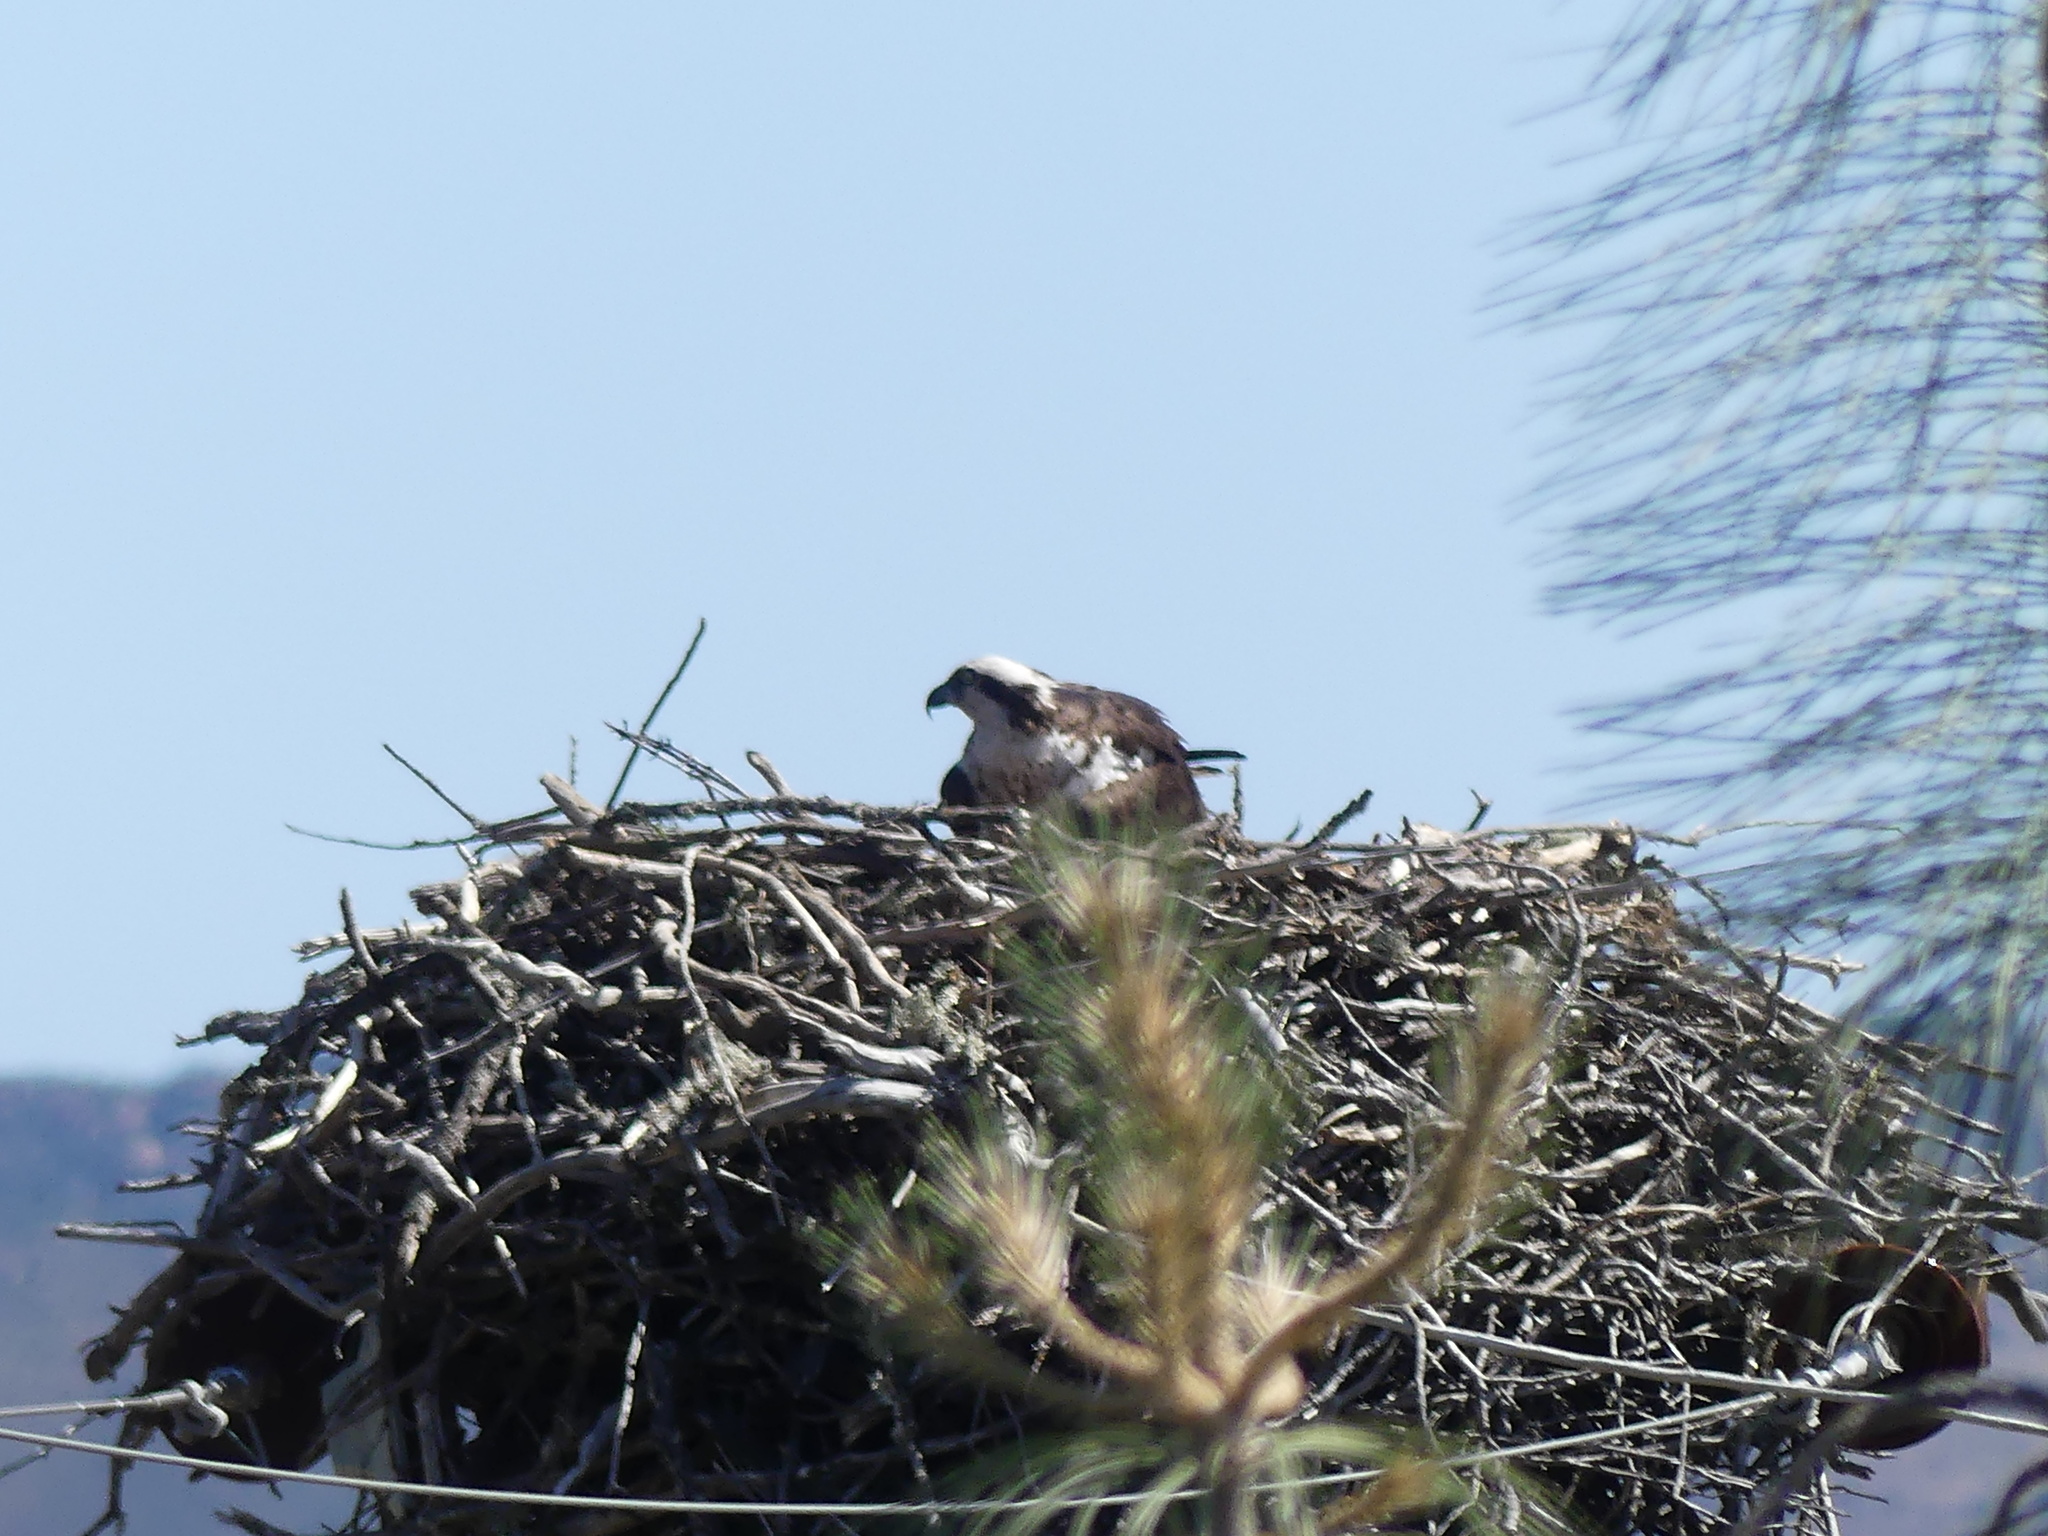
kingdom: Animalia
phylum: Chordata
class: Aves
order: Accipitriformes
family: Pandionidae
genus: Pandion
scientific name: Pandion haliaetus
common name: Osprey
